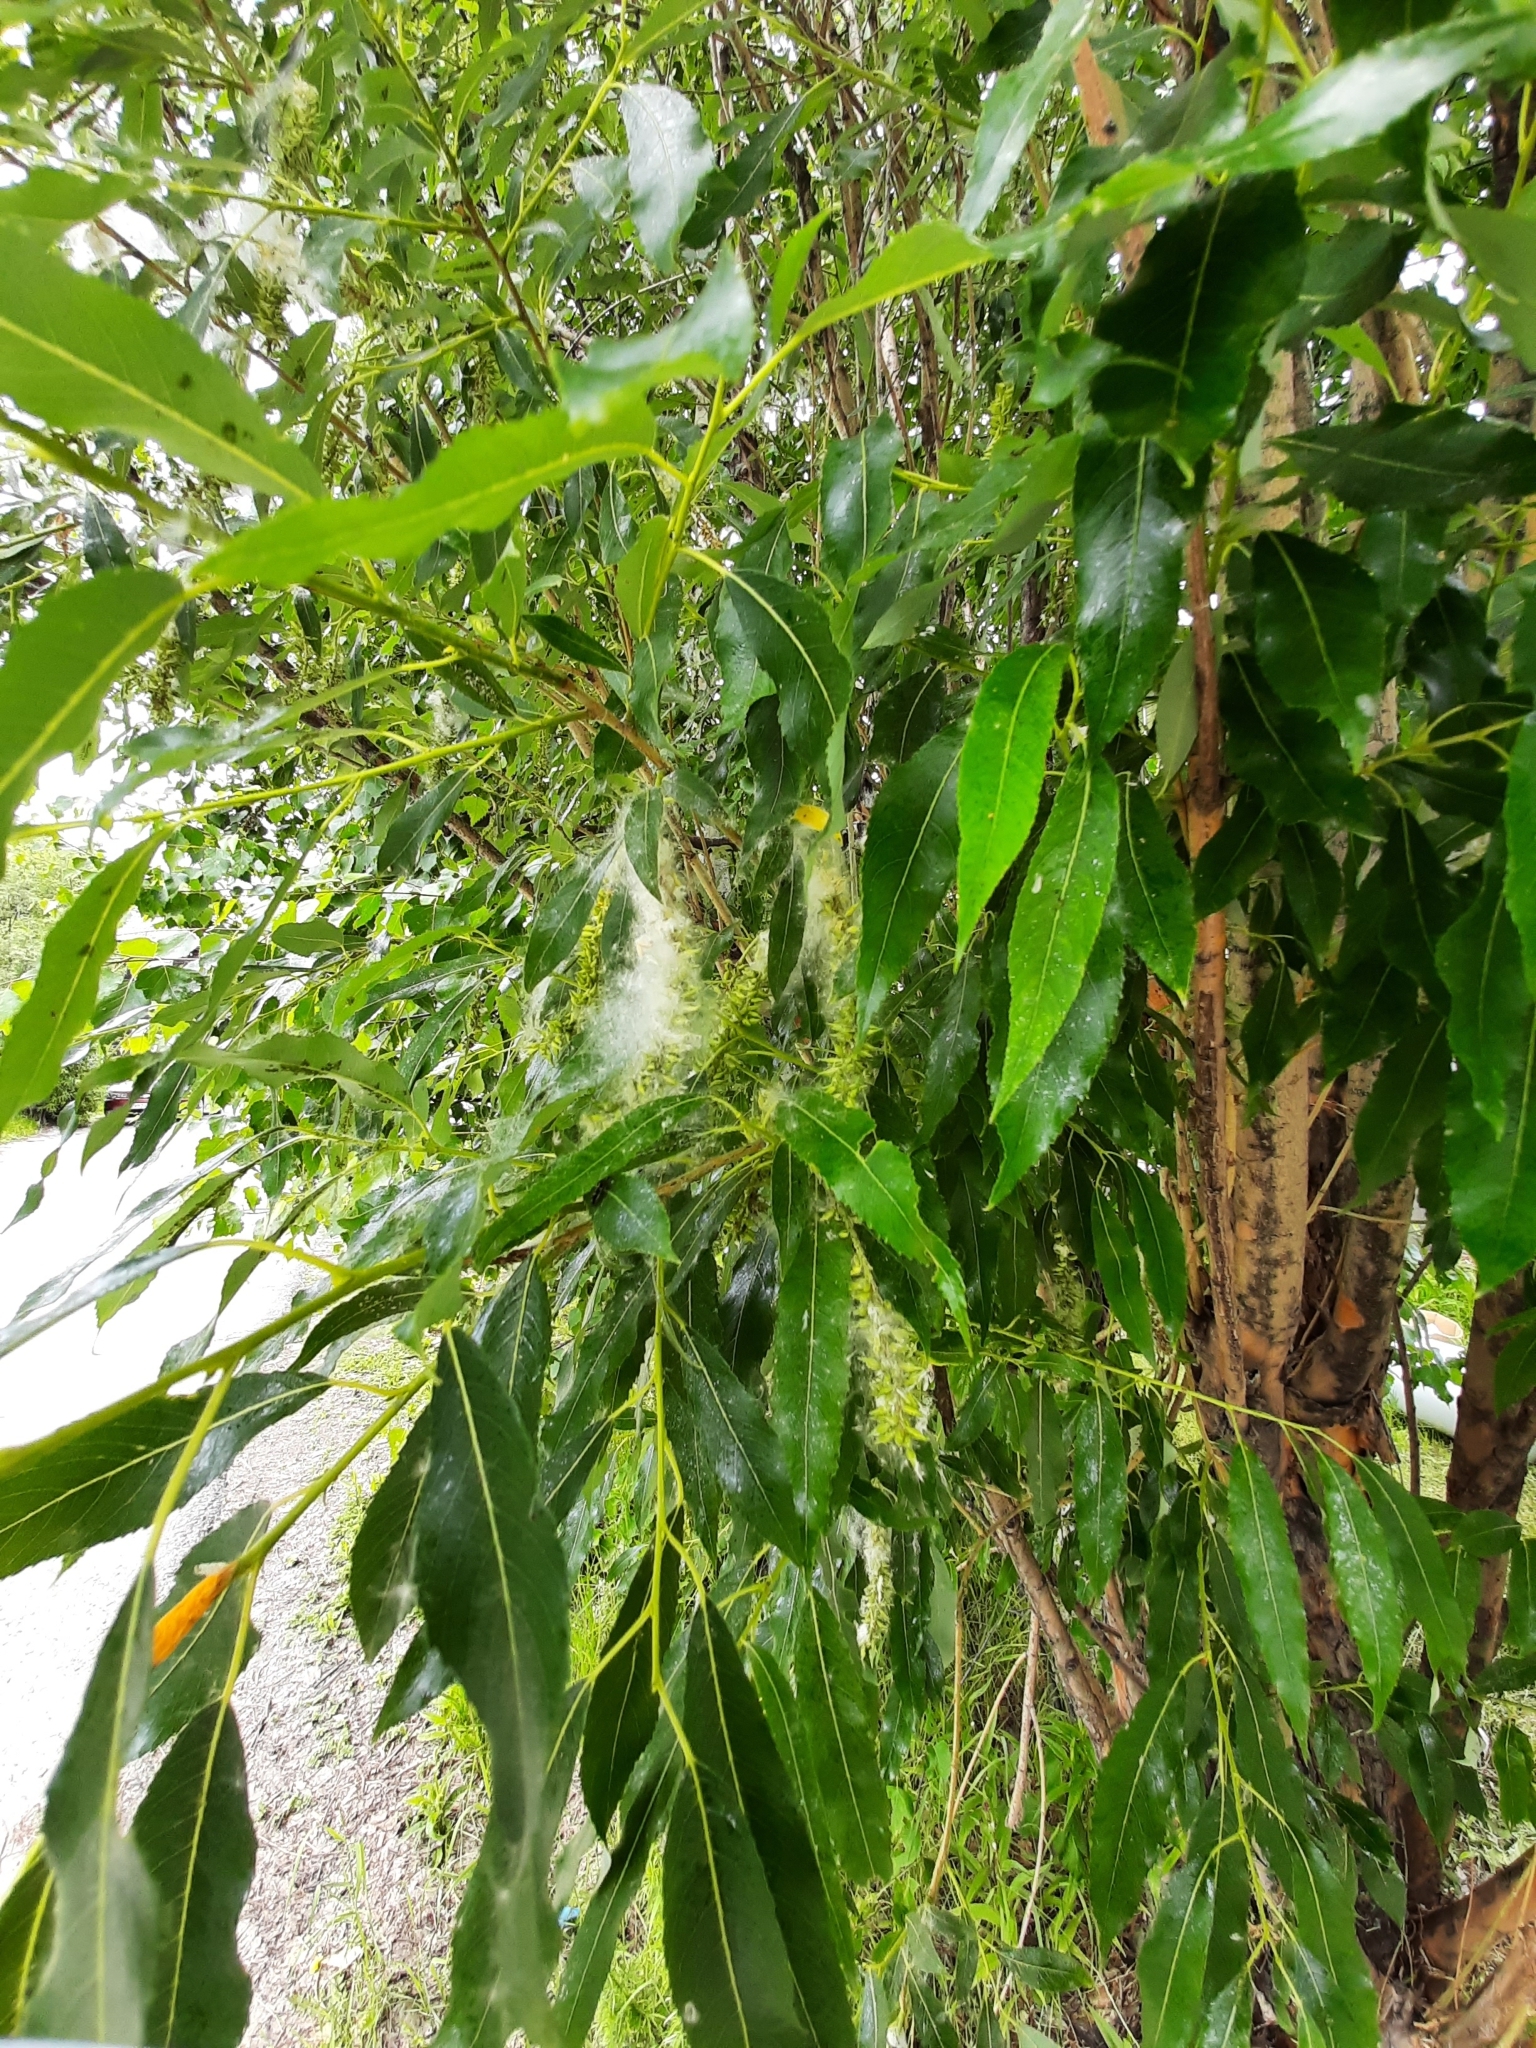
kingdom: Plantae
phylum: Tracheophyta
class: Magnoliopsida
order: Malpighiales
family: Salicaceae
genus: Salix
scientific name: Salix pentandra
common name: Bay willow
